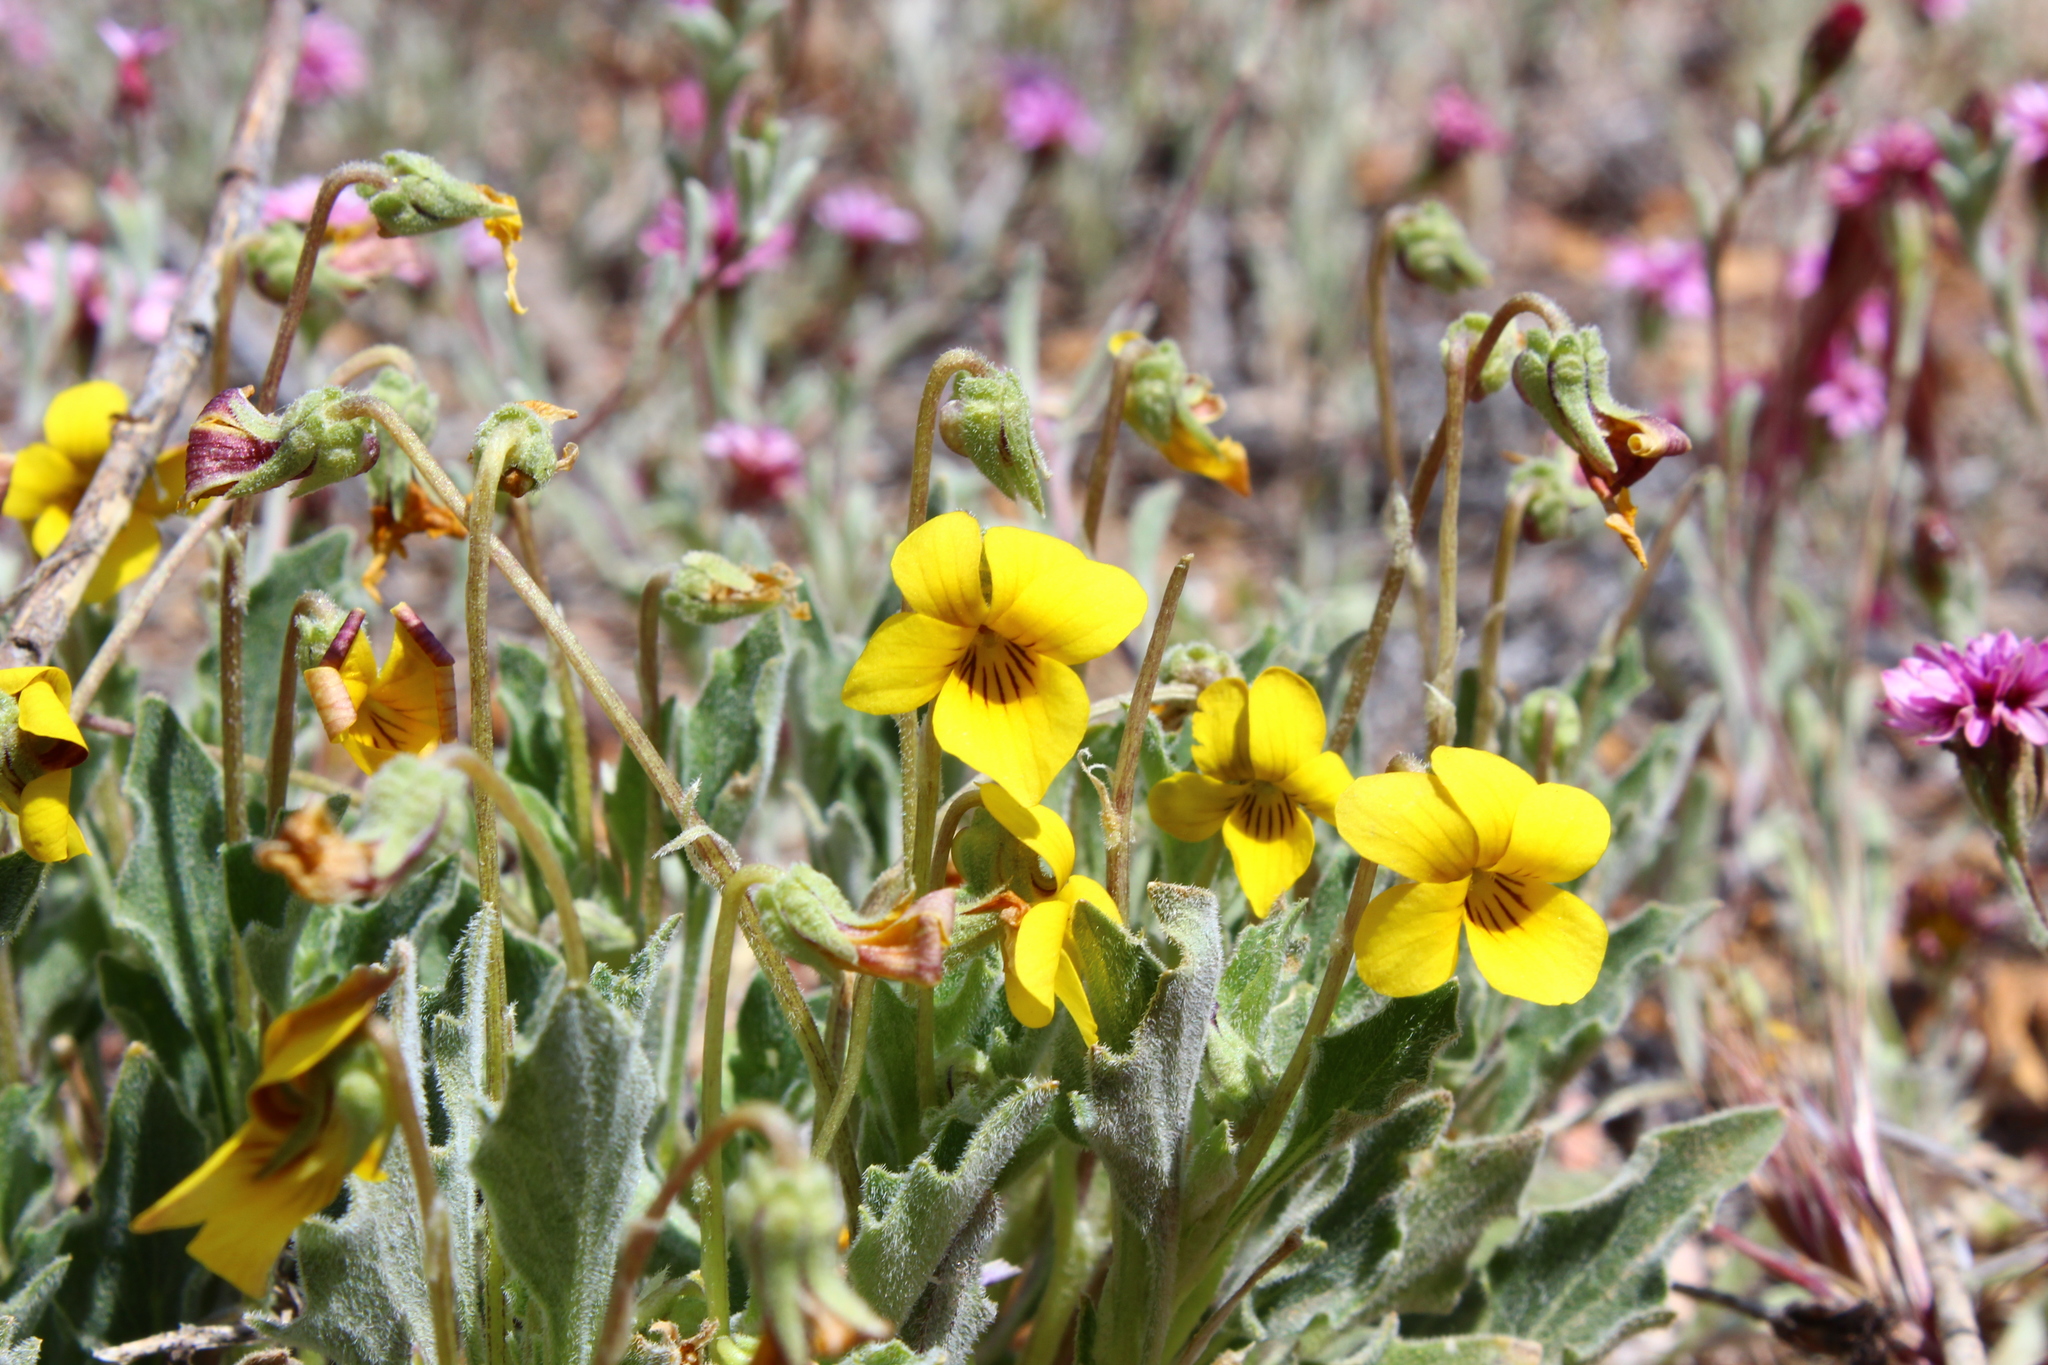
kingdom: Plantae
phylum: Tracheophyta
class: Magnoliopsida
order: Malpighiales
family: Violaceae
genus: Viola
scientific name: Viola pinetorum
